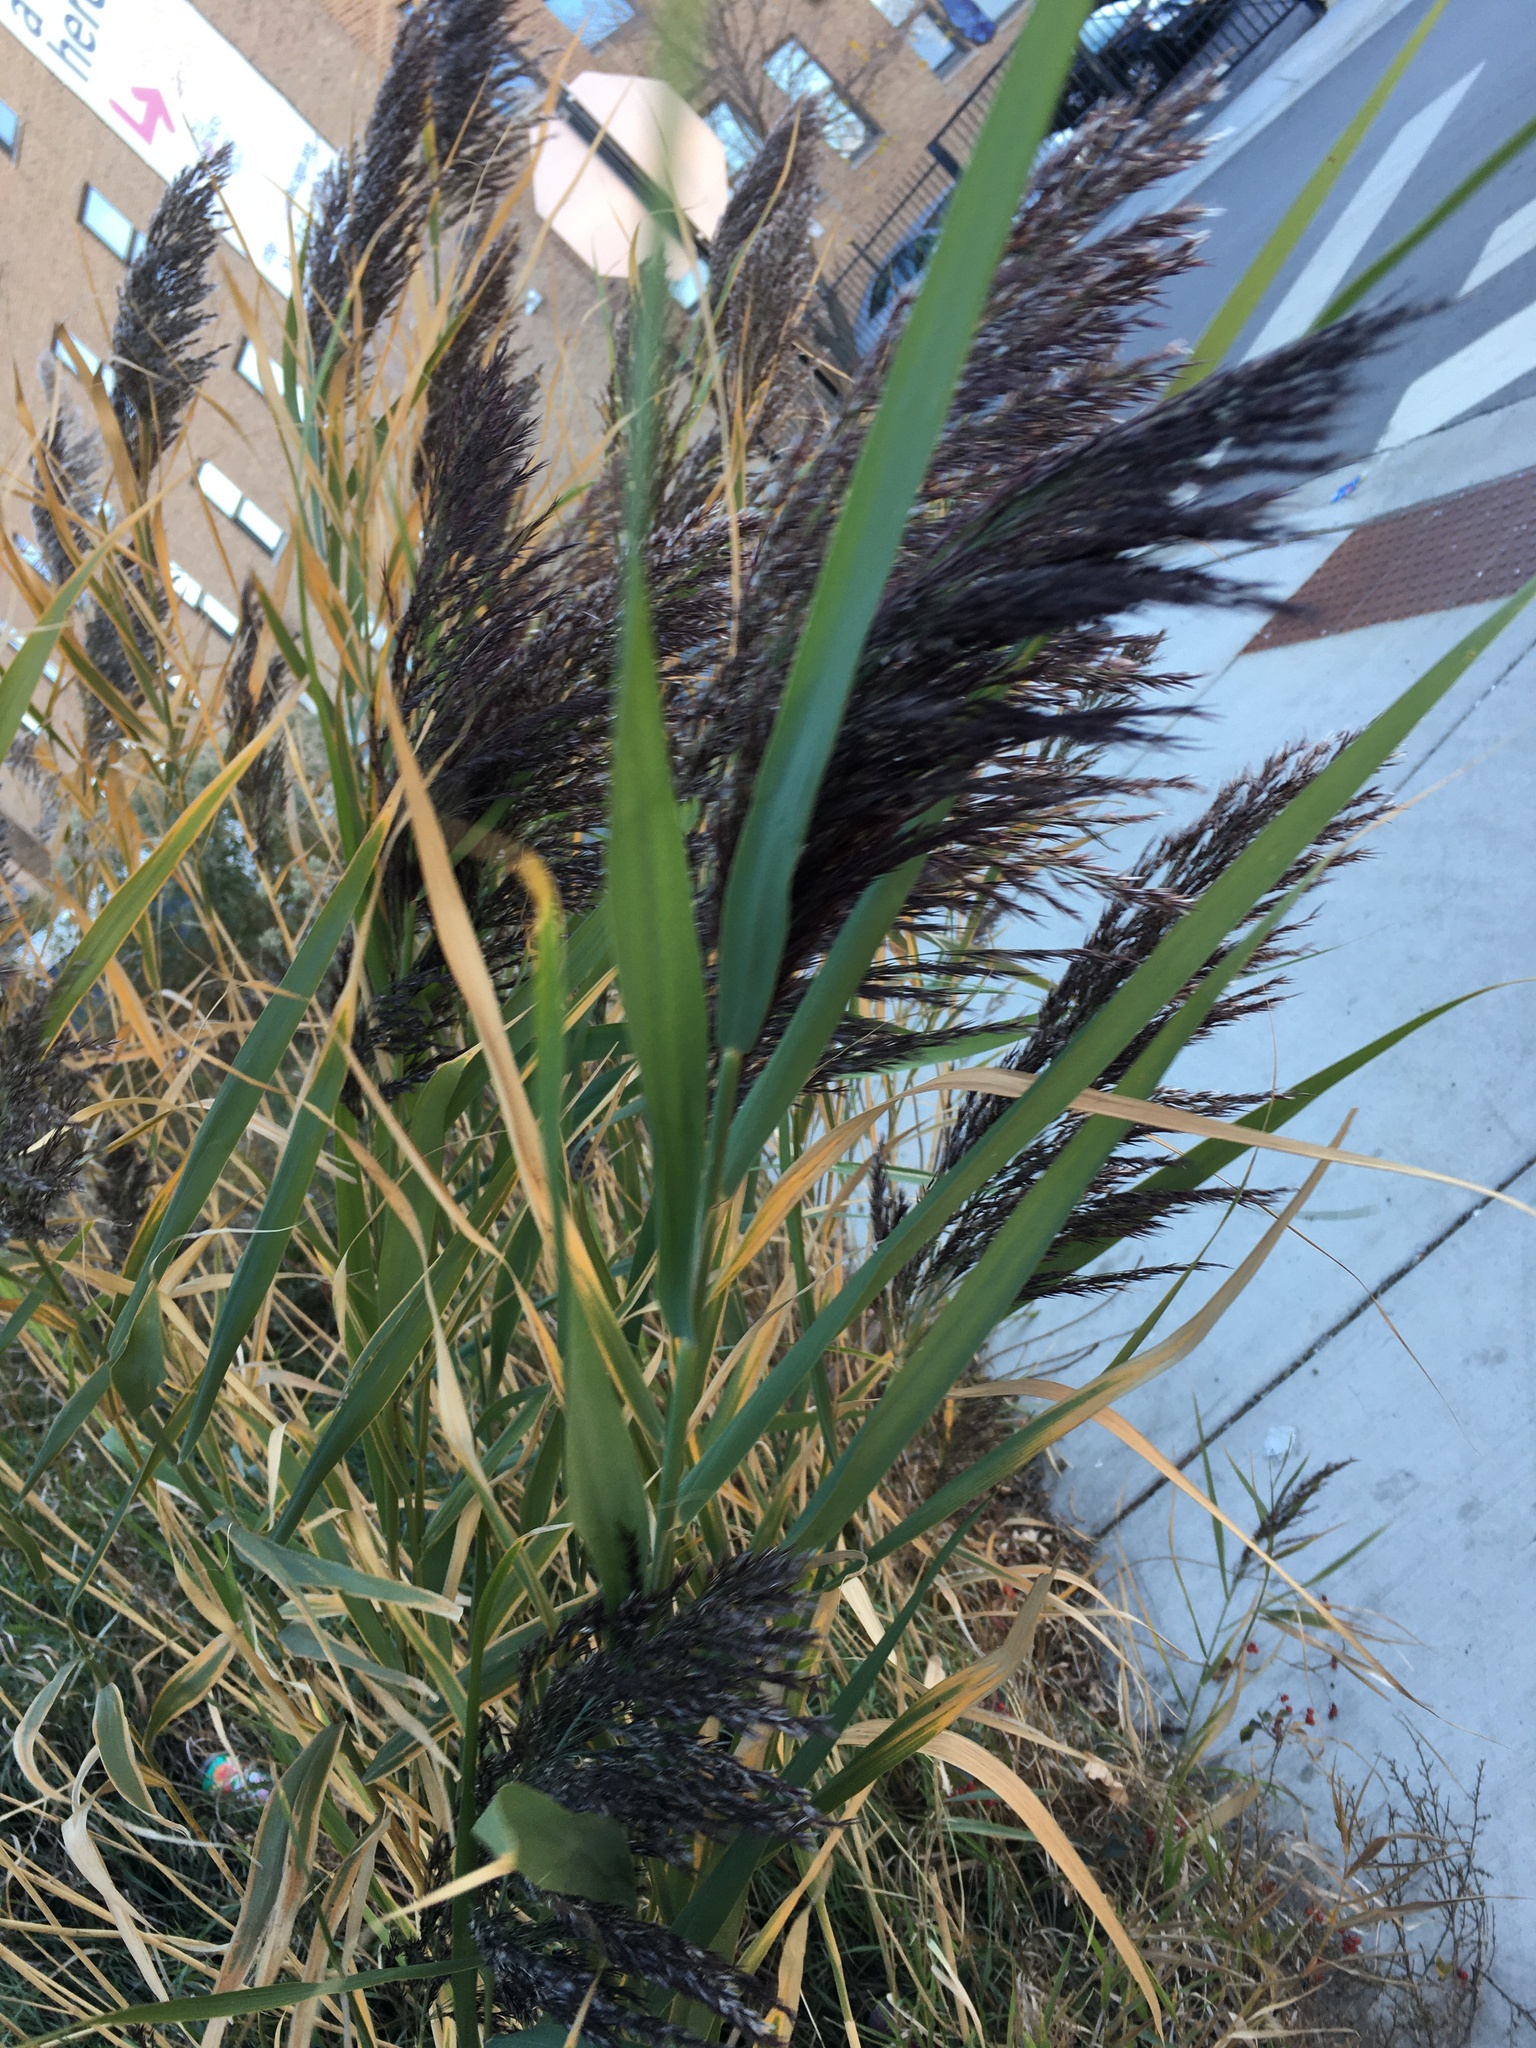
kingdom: Plantae
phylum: Tracheophyta
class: Liliopsida
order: Poales
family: Poaceae
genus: Phragmites
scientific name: Phragmites australis
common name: Common reed
